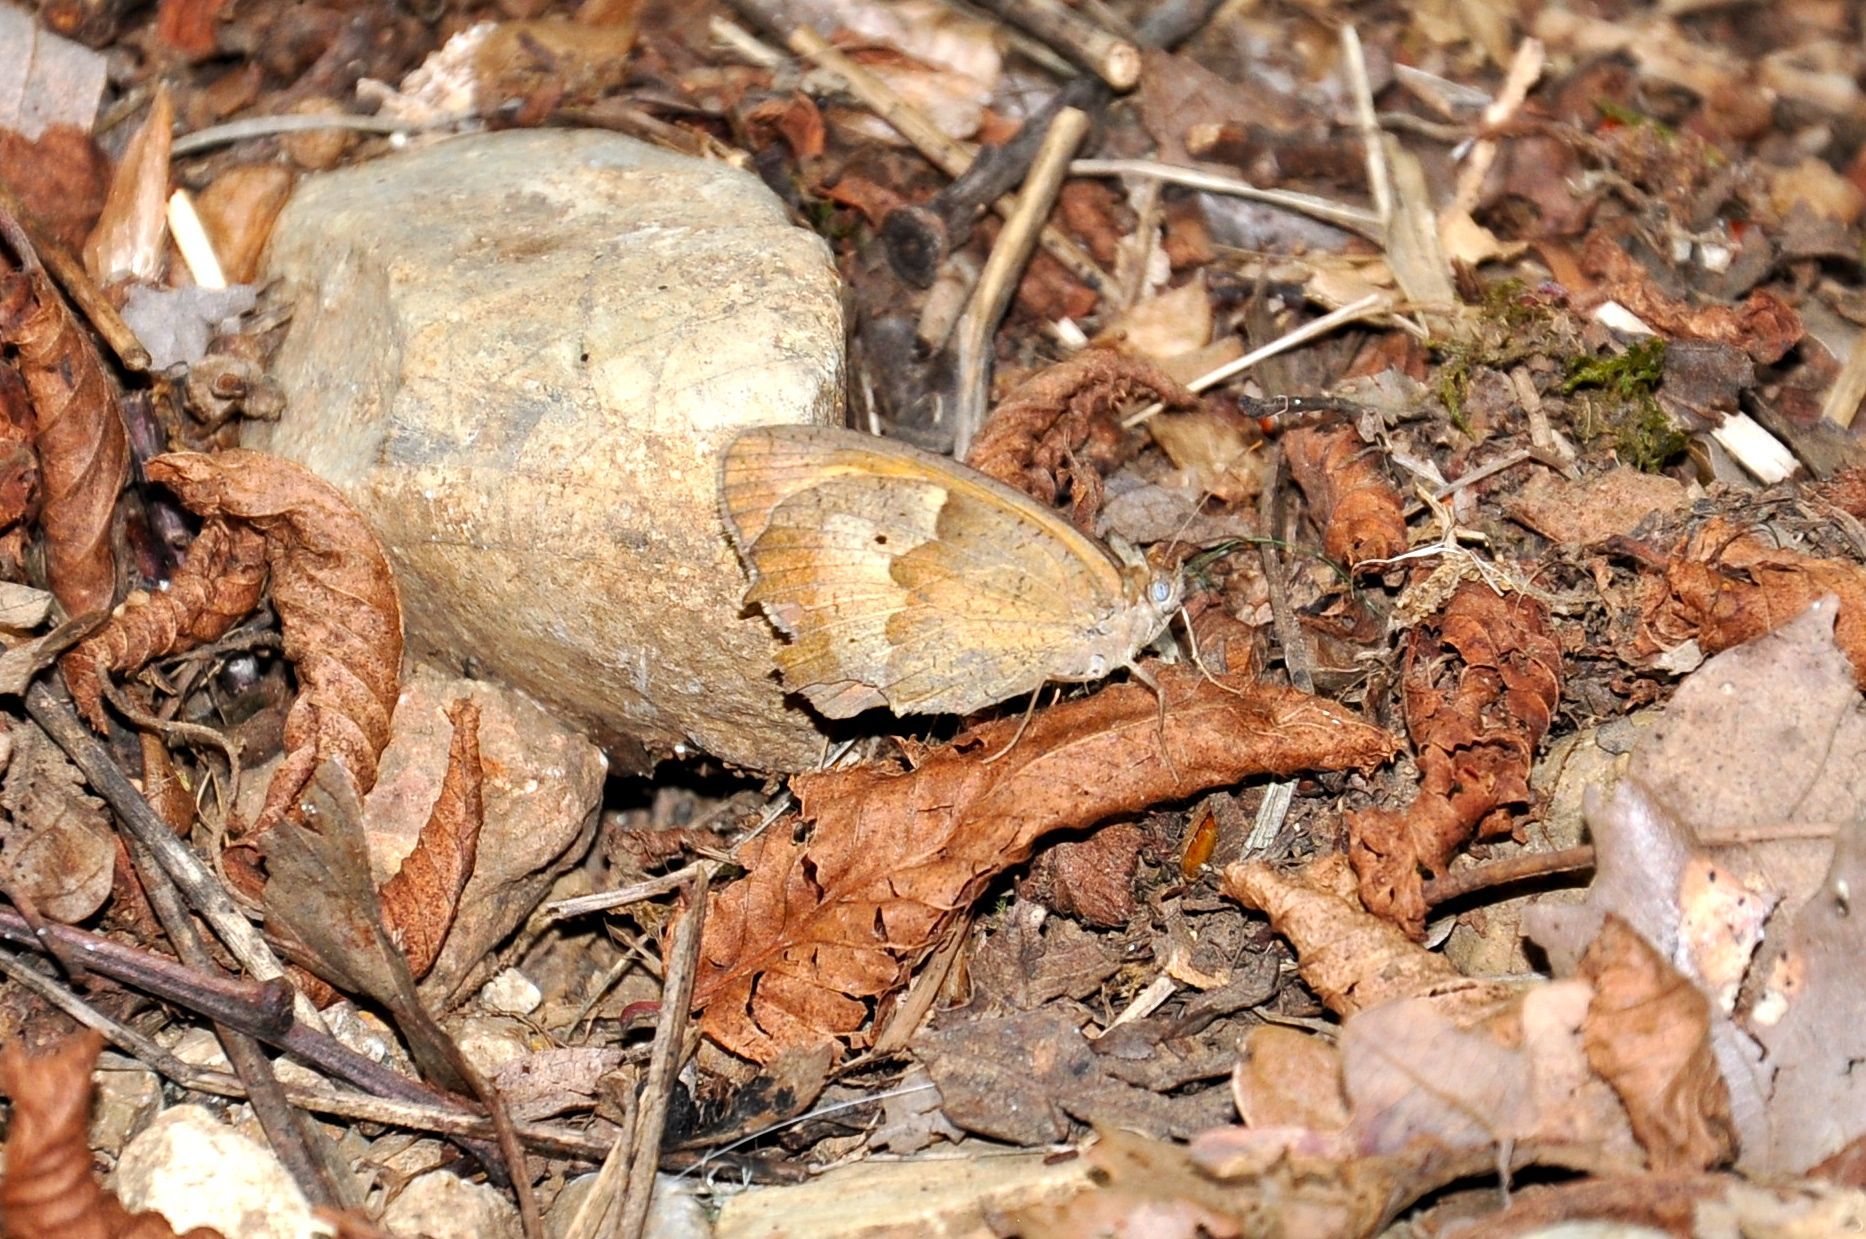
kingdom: Animalia
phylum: Arthropoda
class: Insecta
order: Lepidoptera
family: Nymphalidae
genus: Maniola
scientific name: Maniola jurtina
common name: Meadow brown
